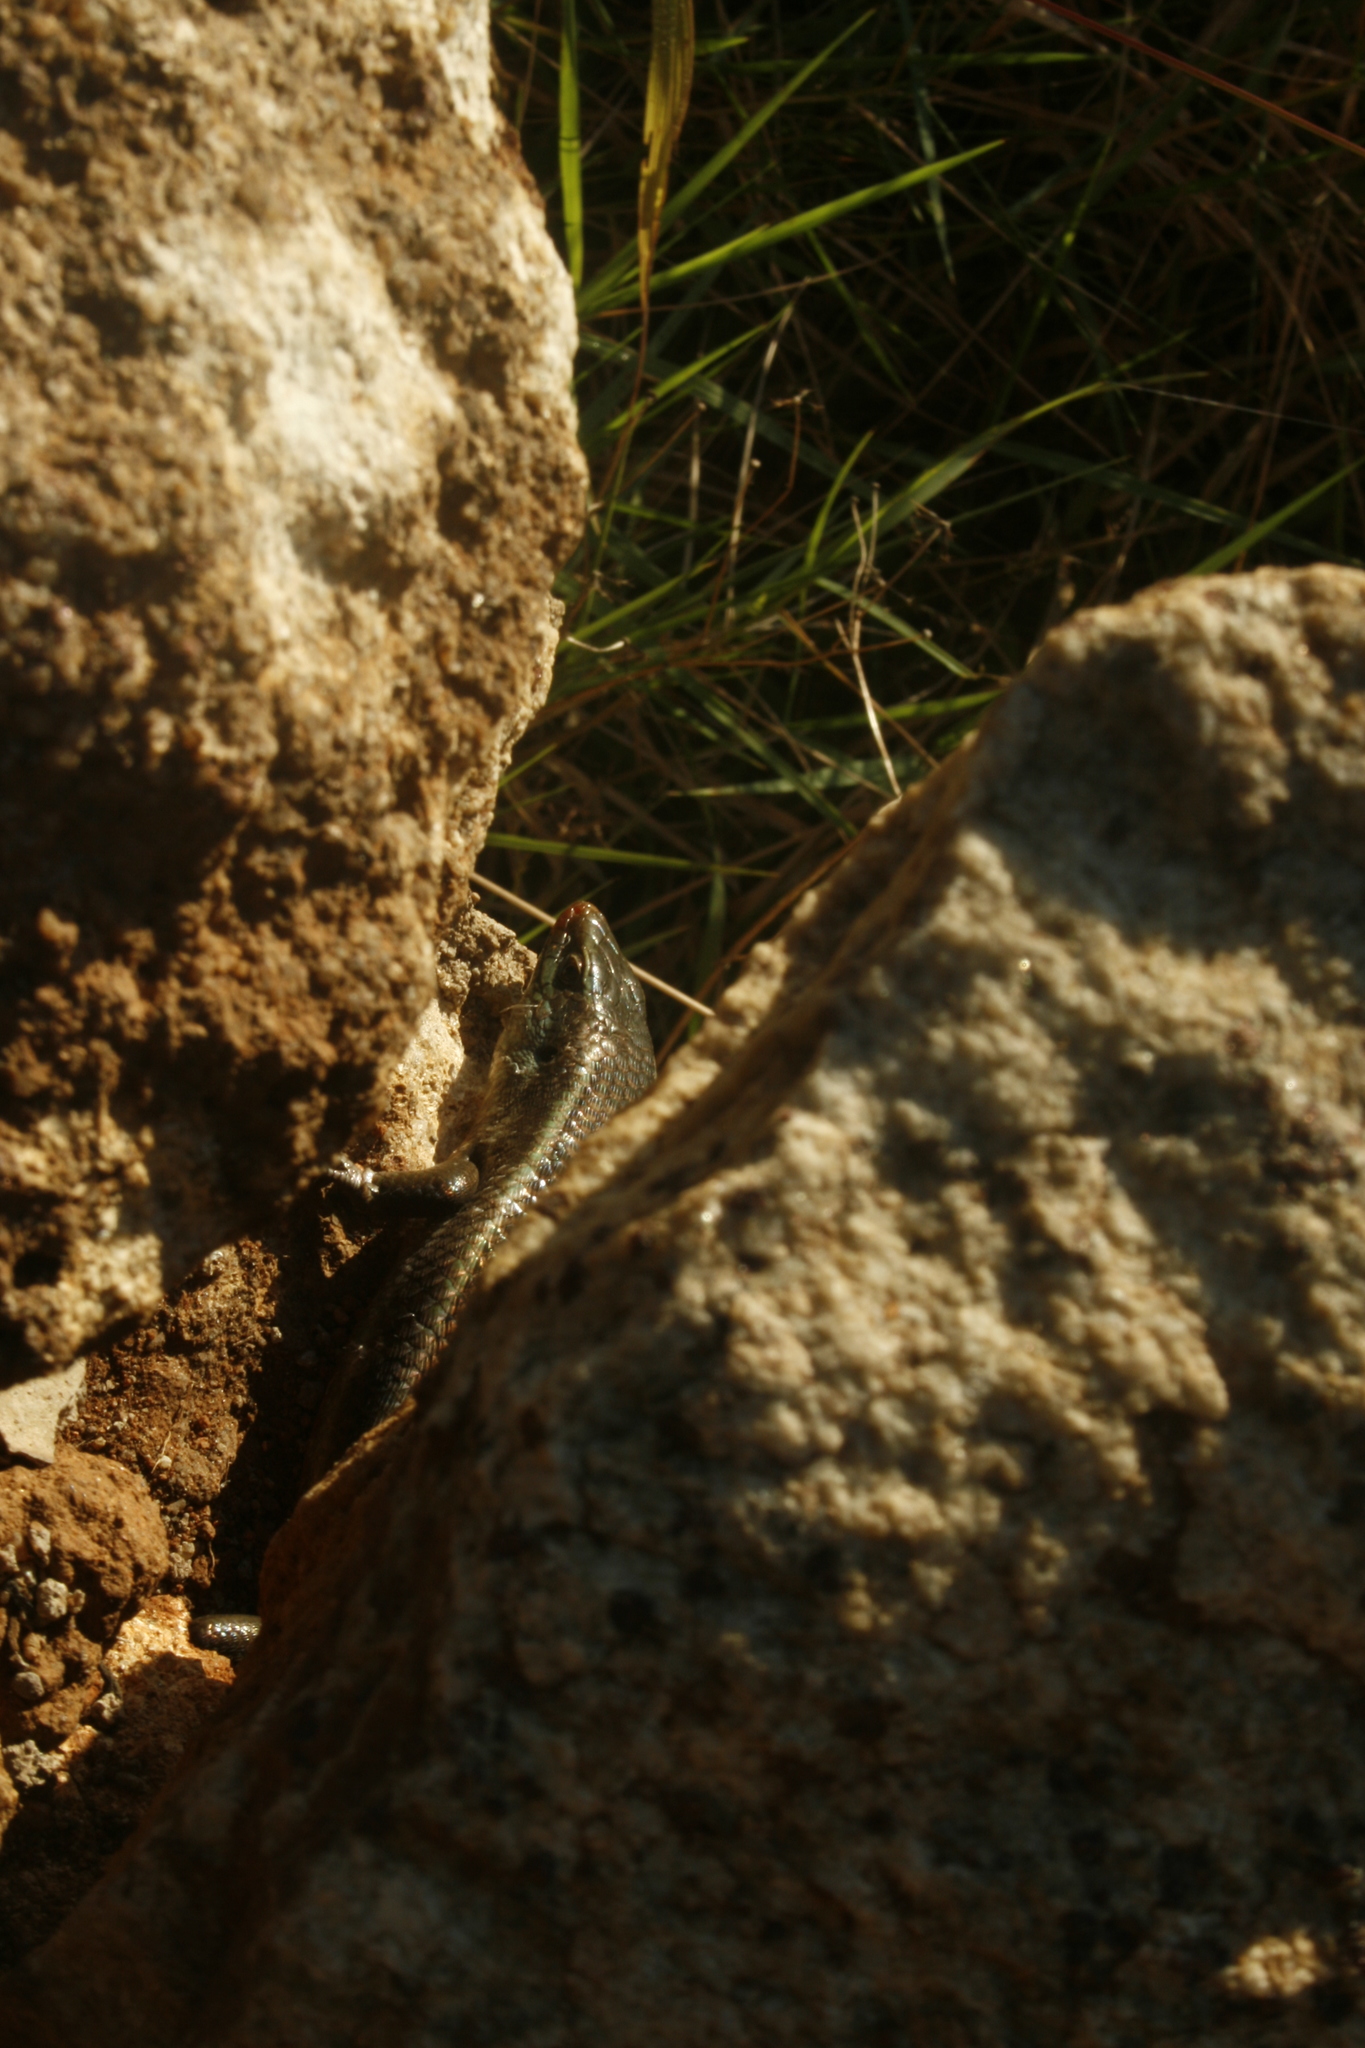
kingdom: Animalia
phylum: Chordata
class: Squamata
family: Scincidae
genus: Eutropis
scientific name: Eutropis carinata
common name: Keeled indian mabuya
